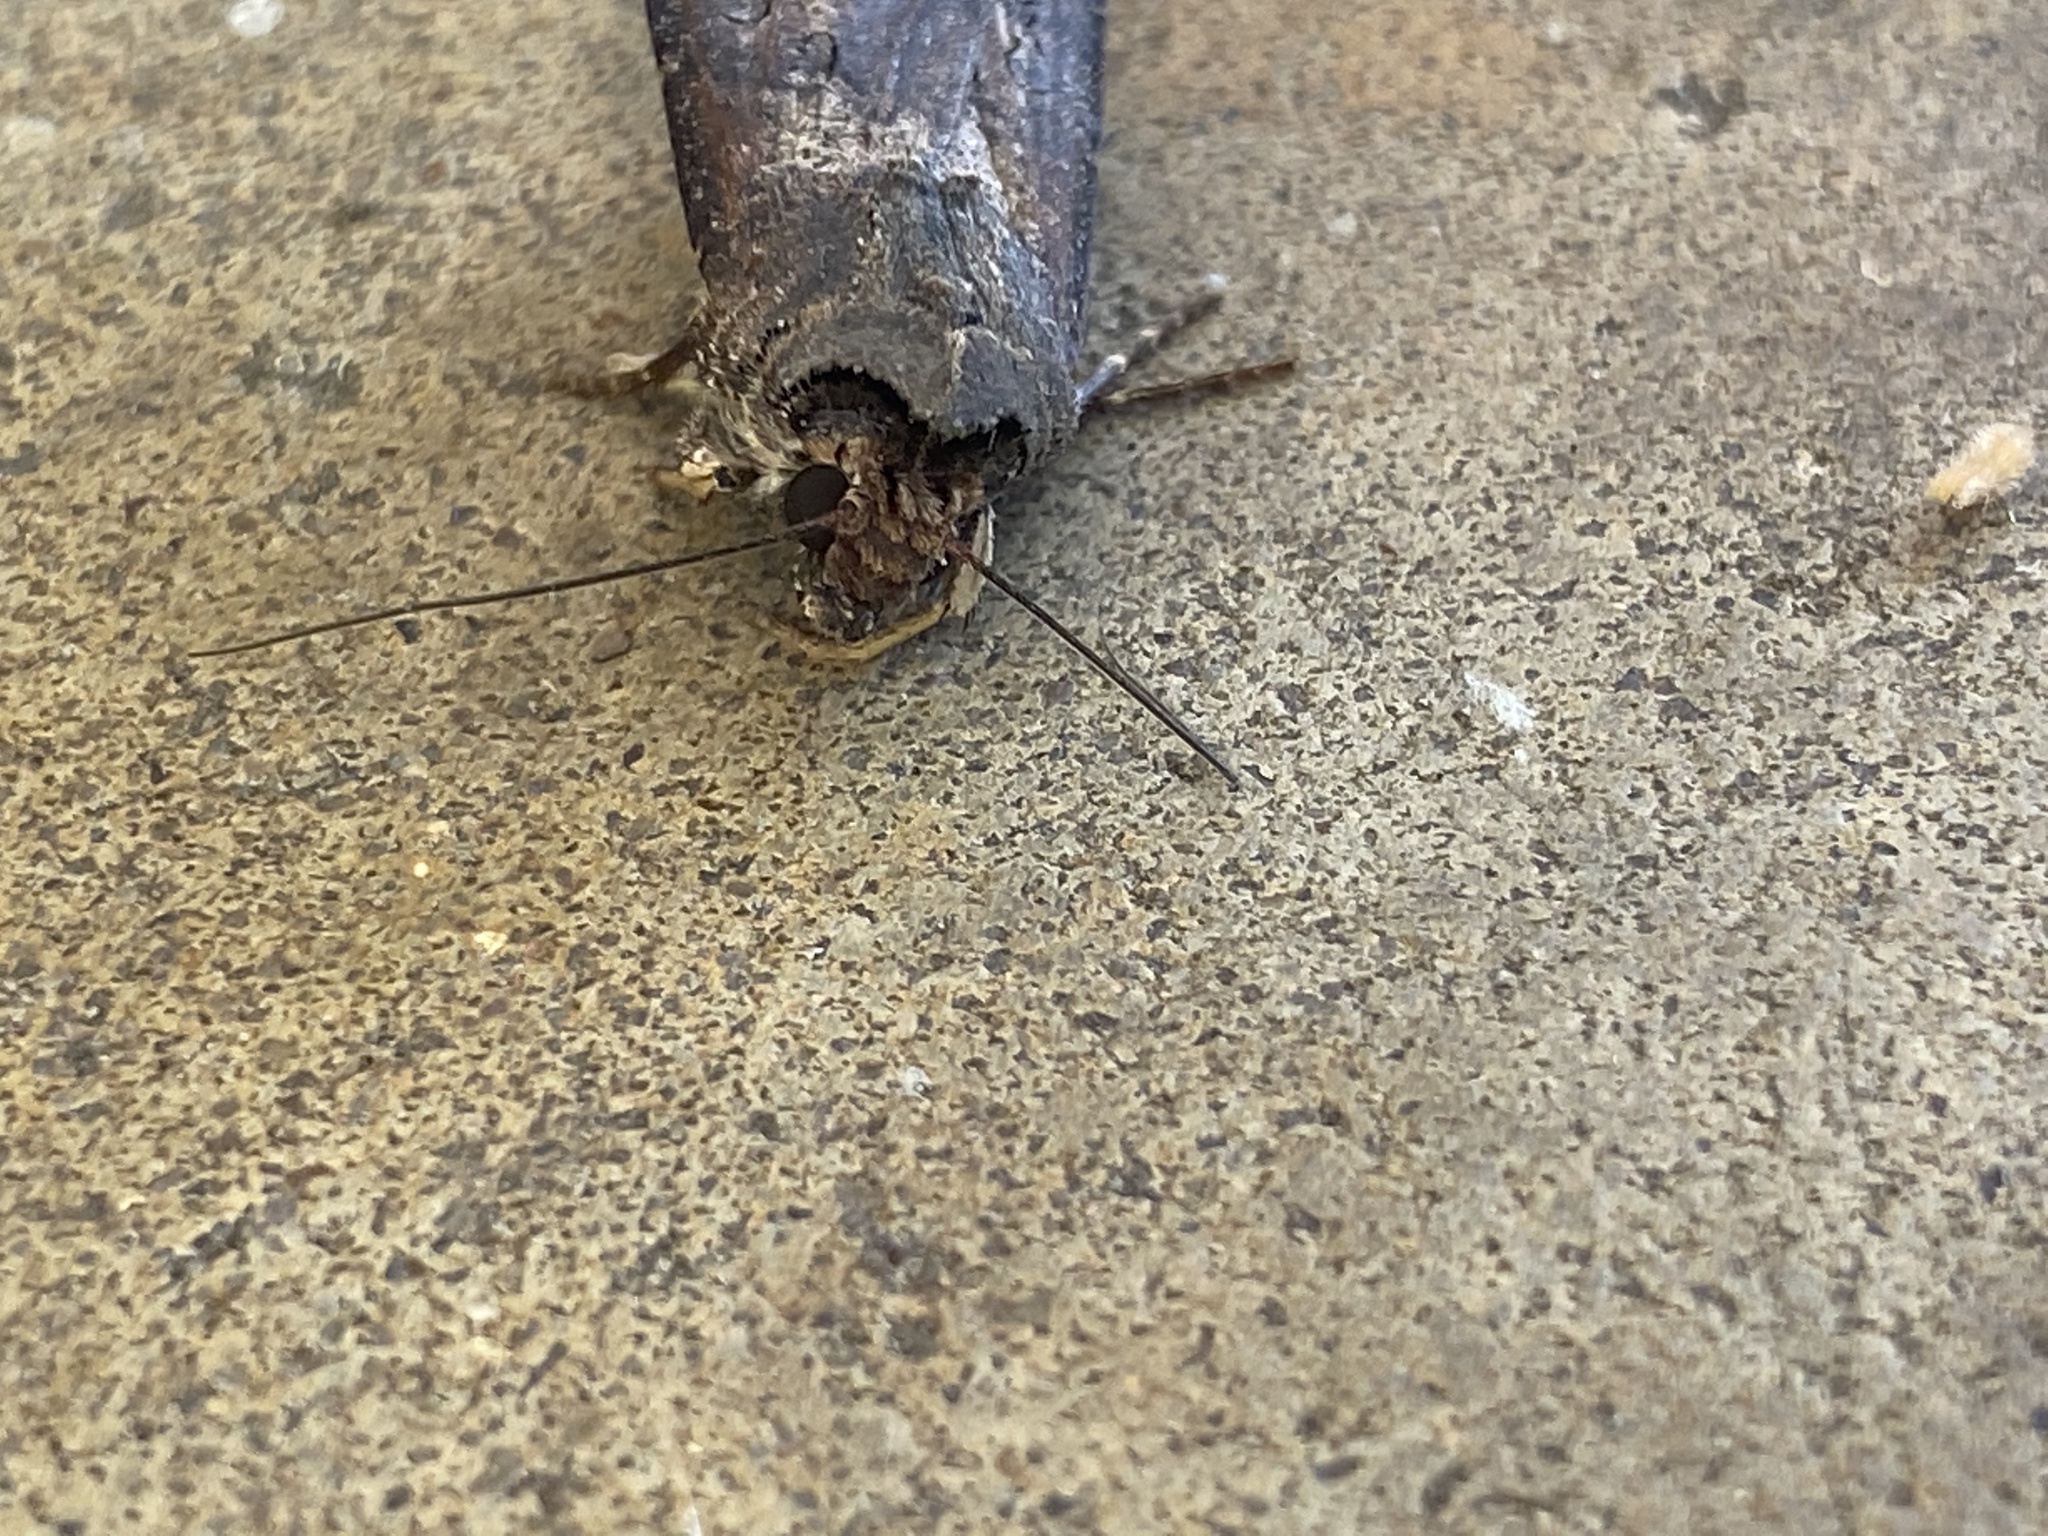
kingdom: Animalia
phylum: Arthropoda
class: Insecta
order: Lepidoptera
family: Noctuidae
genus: Agrotis
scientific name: Agrotis ipsilon
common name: Dark sword-grass
